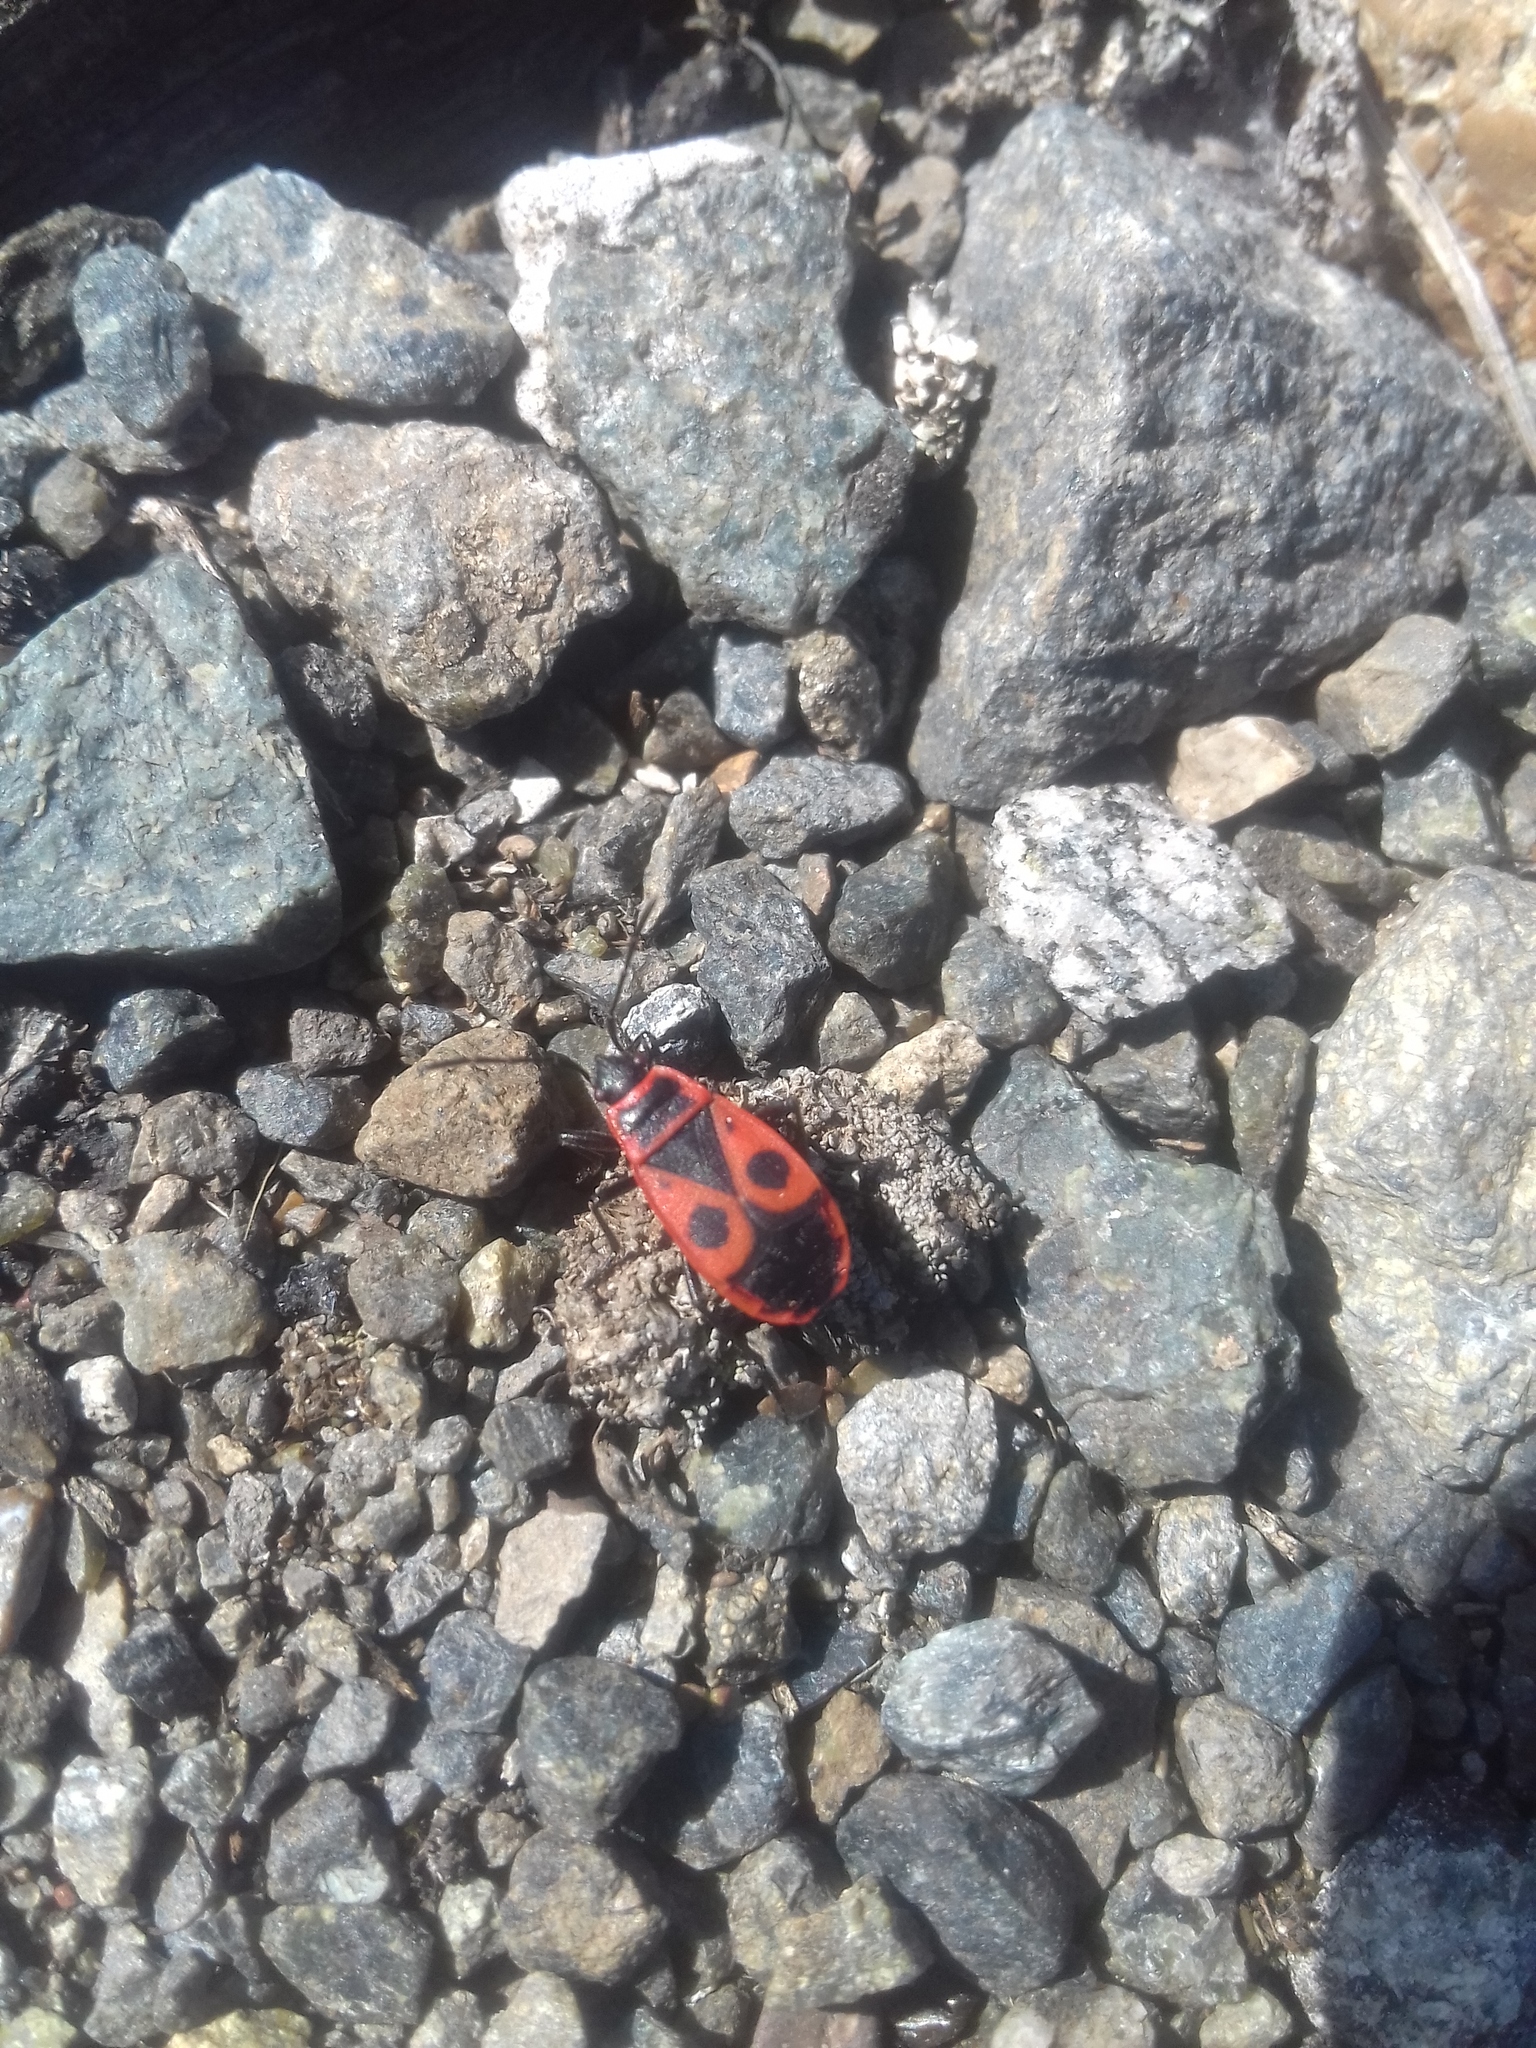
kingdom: Animalia
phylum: Arthropoda
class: Insecta
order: Hemiptera
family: Pyrrhocoridae
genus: Pyrrhocoris
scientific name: Pyrrhocoris apterus
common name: Firebug
